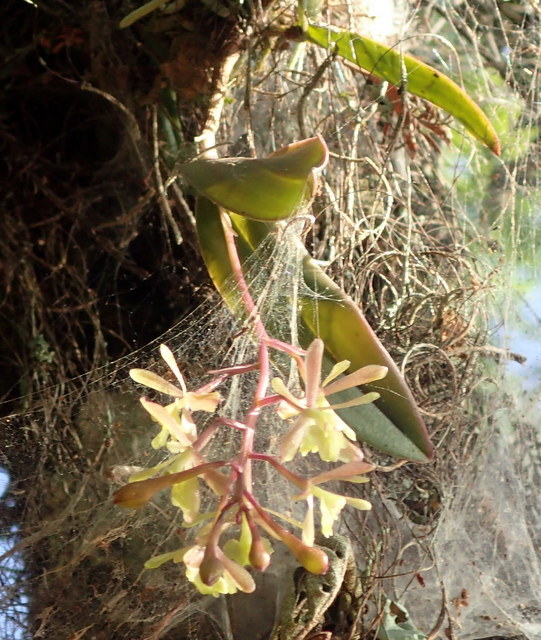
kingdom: Plantae
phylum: Tracheophyta
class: Liliopsida
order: Asparagales
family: Orchidaceae
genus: Epidendrum
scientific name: Epidendrum conopseum
